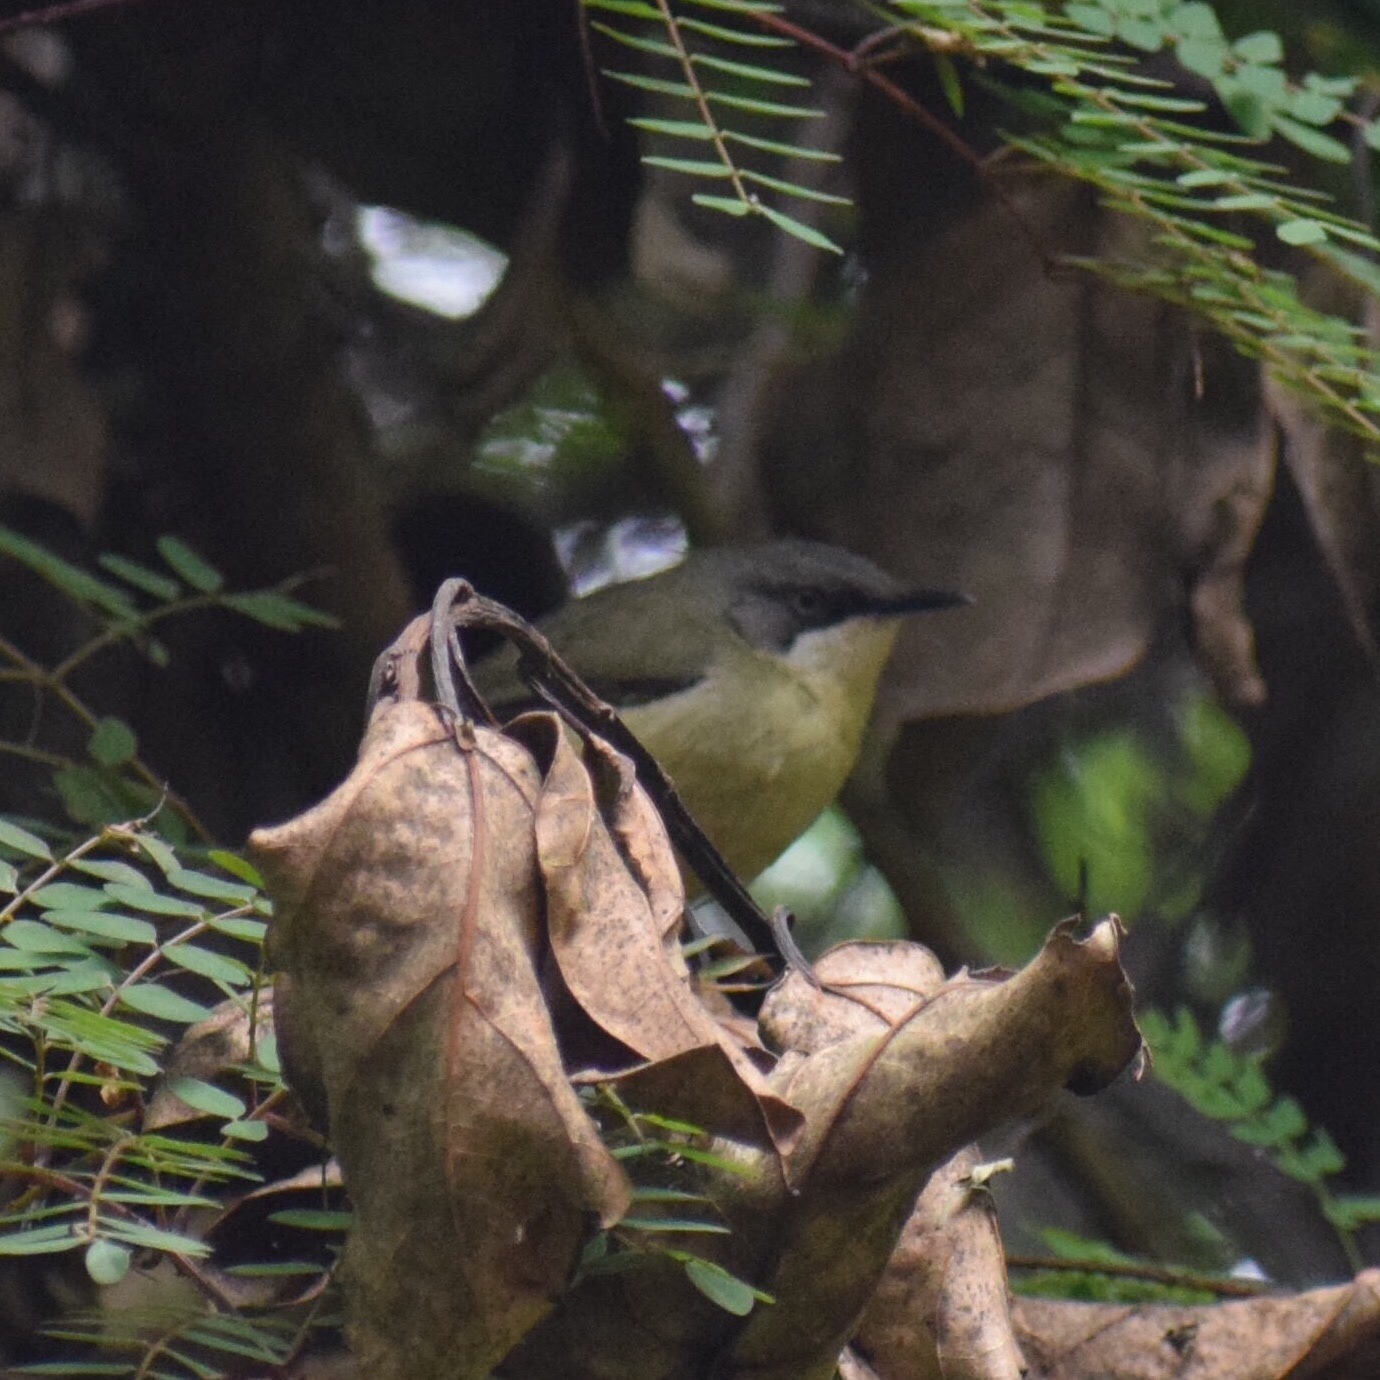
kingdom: Animalia
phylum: Chordata
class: Aves
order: Passeriformes
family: Cisticolidae
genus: Apalis
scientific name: Apalis thoracica
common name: Bar-throated apalis
